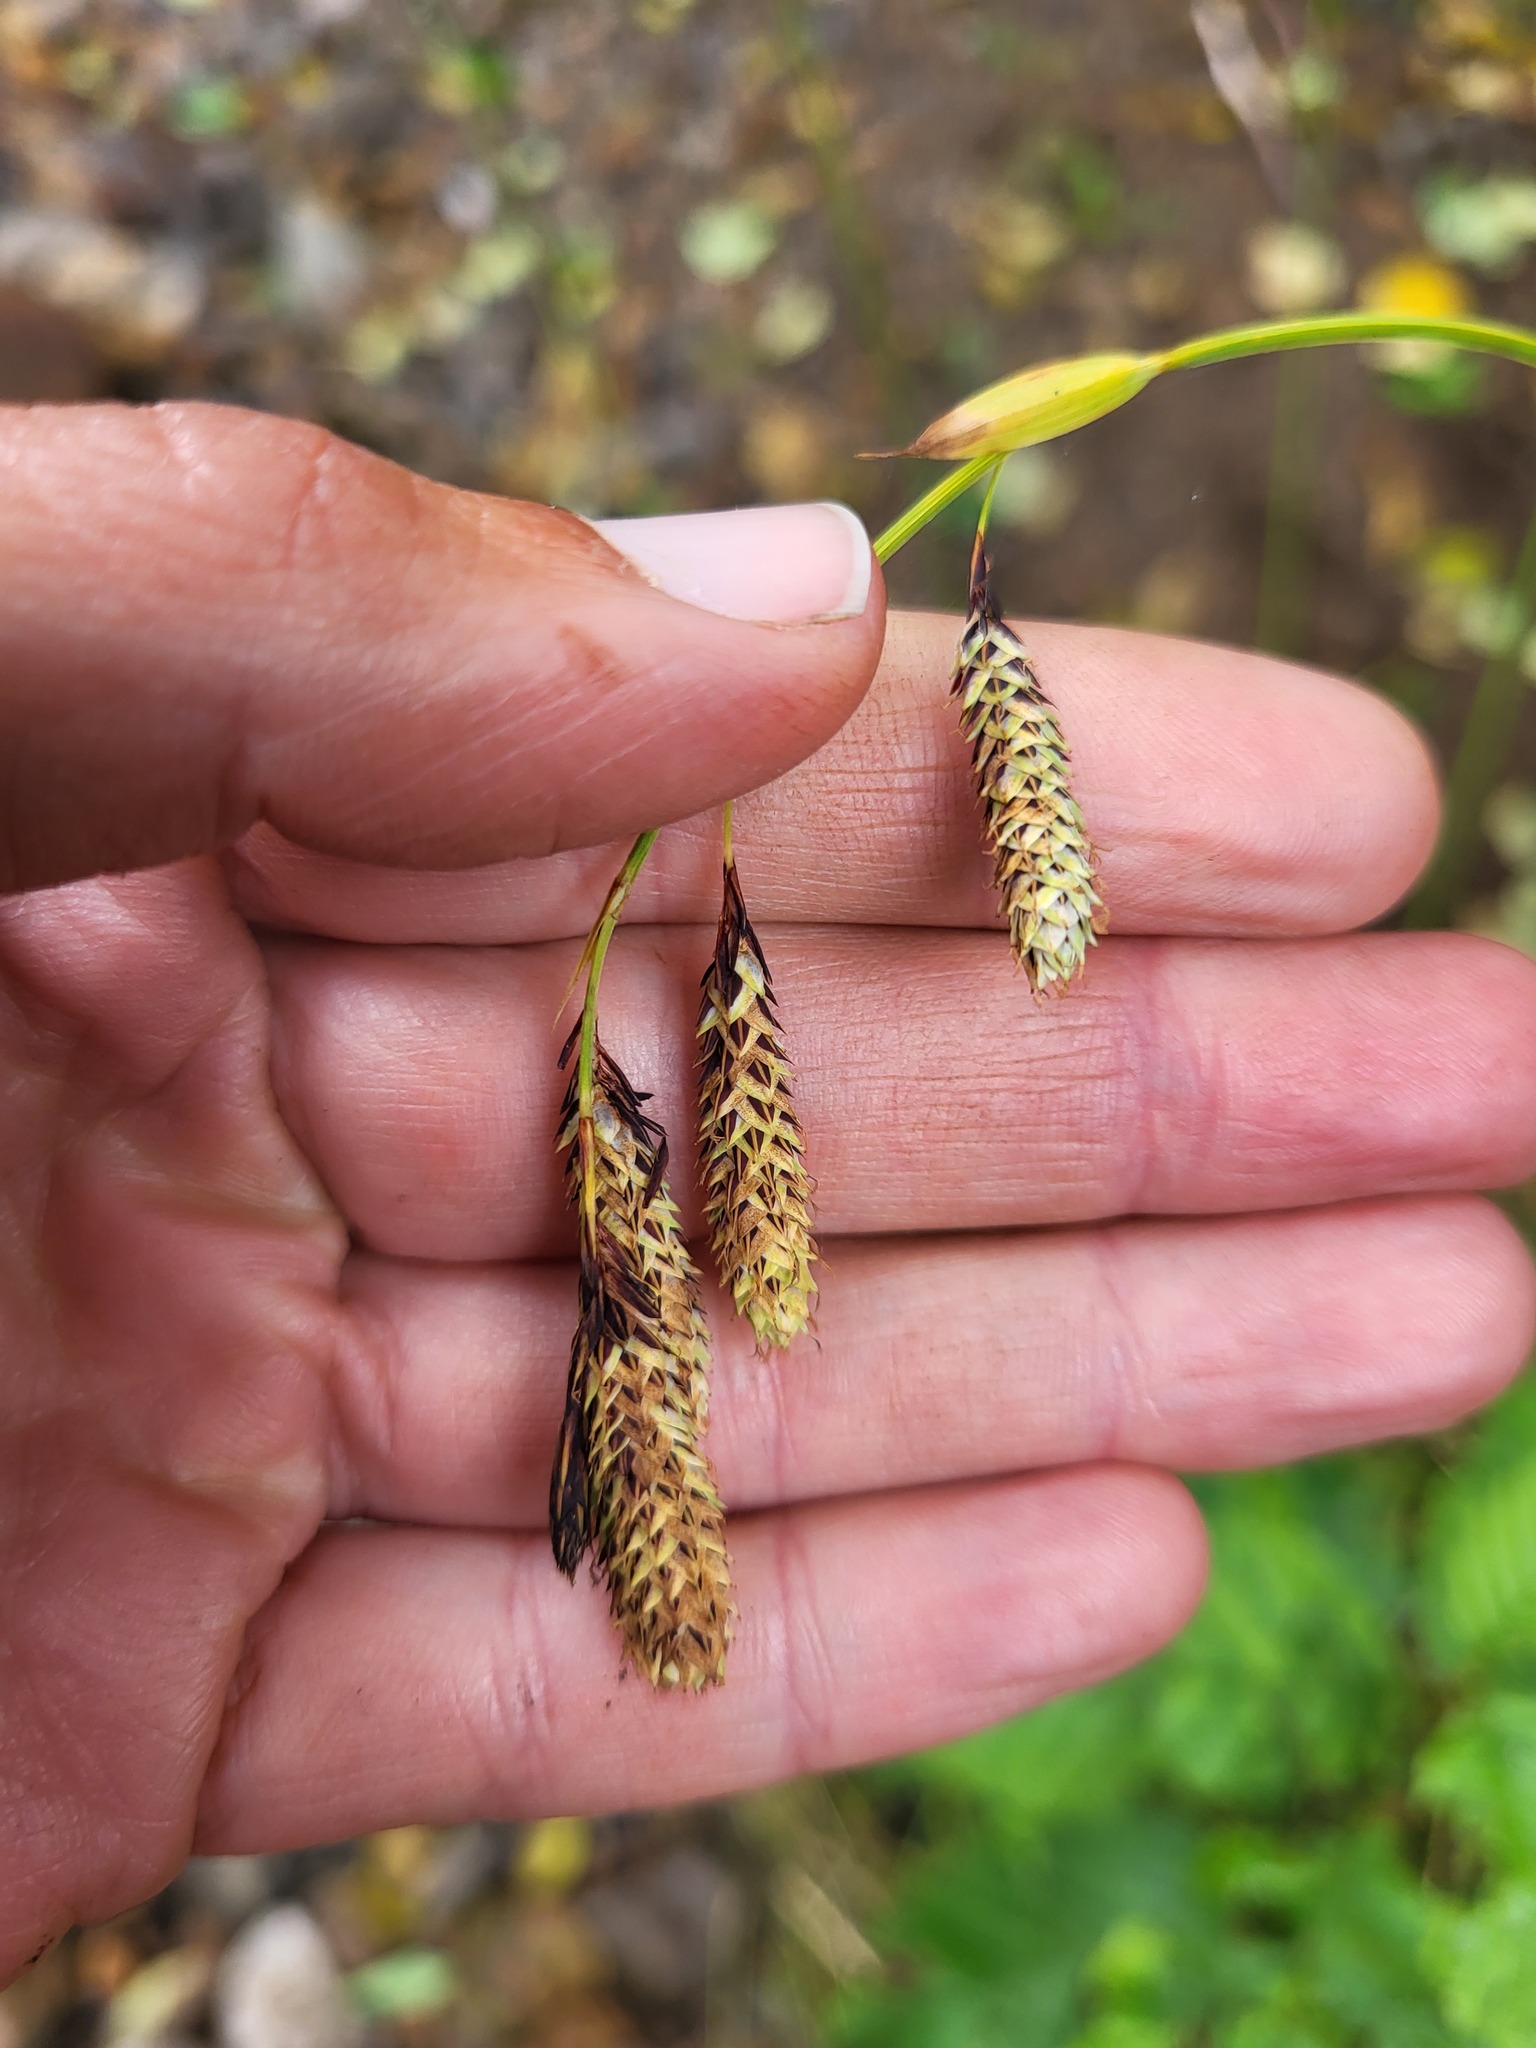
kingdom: Plantae
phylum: Tracheophyta
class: Liliopsida
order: Poales
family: Cyperaceae
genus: Carex
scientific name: Carex mertensii
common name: Mertens' sedge
